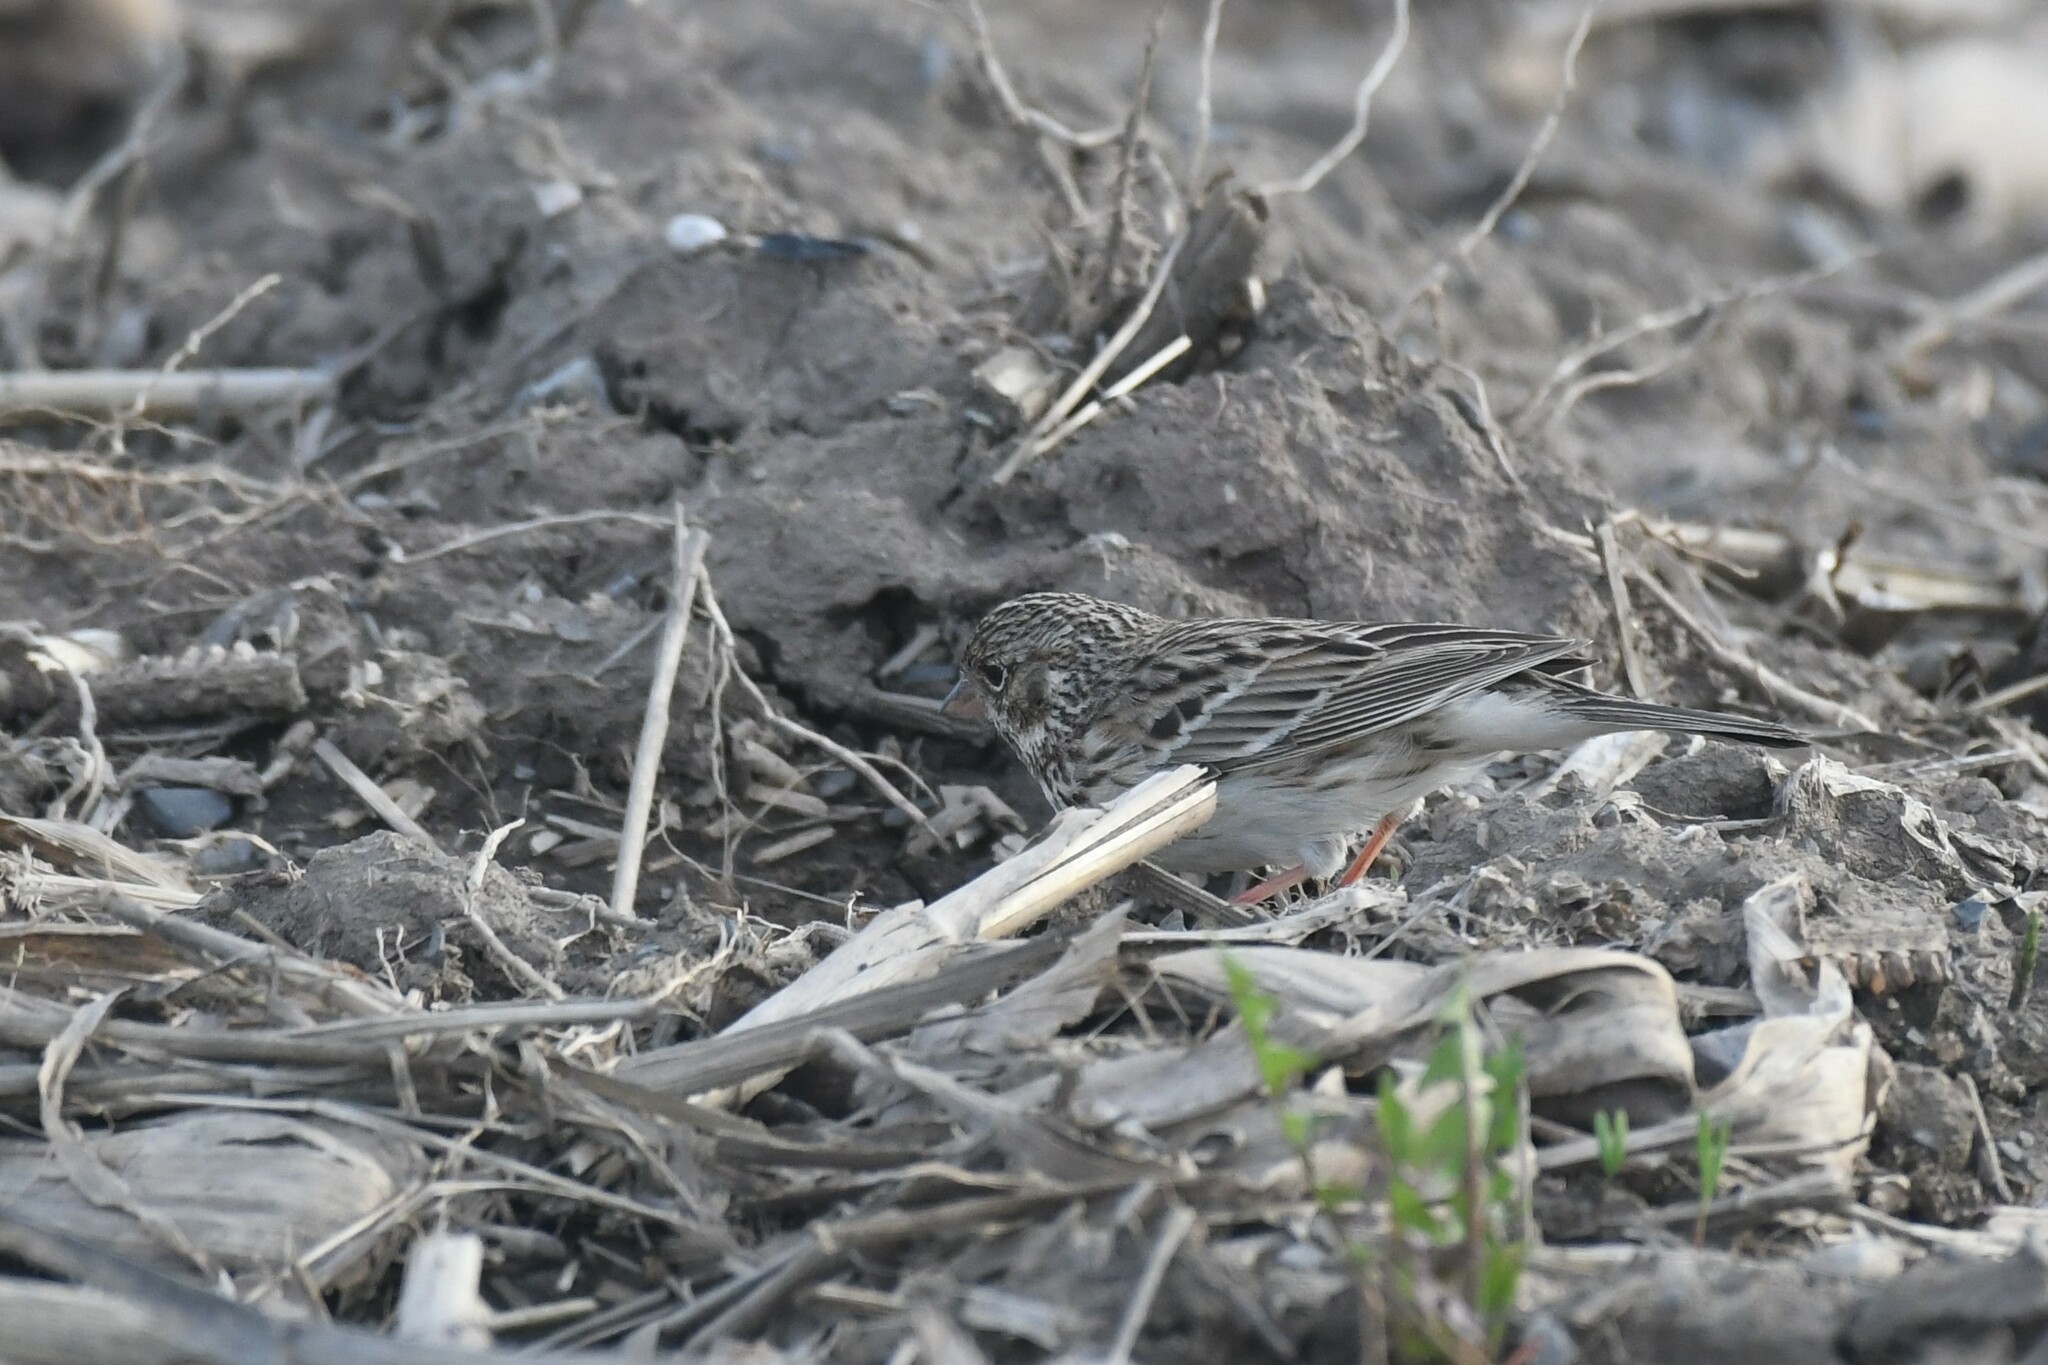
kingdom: Animalia
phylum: Chordata
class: Aves
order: Passeriformes
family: Passerellidae
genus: Pooecetes
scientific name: Pooecetes gramineus
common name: Vesper sparrow
